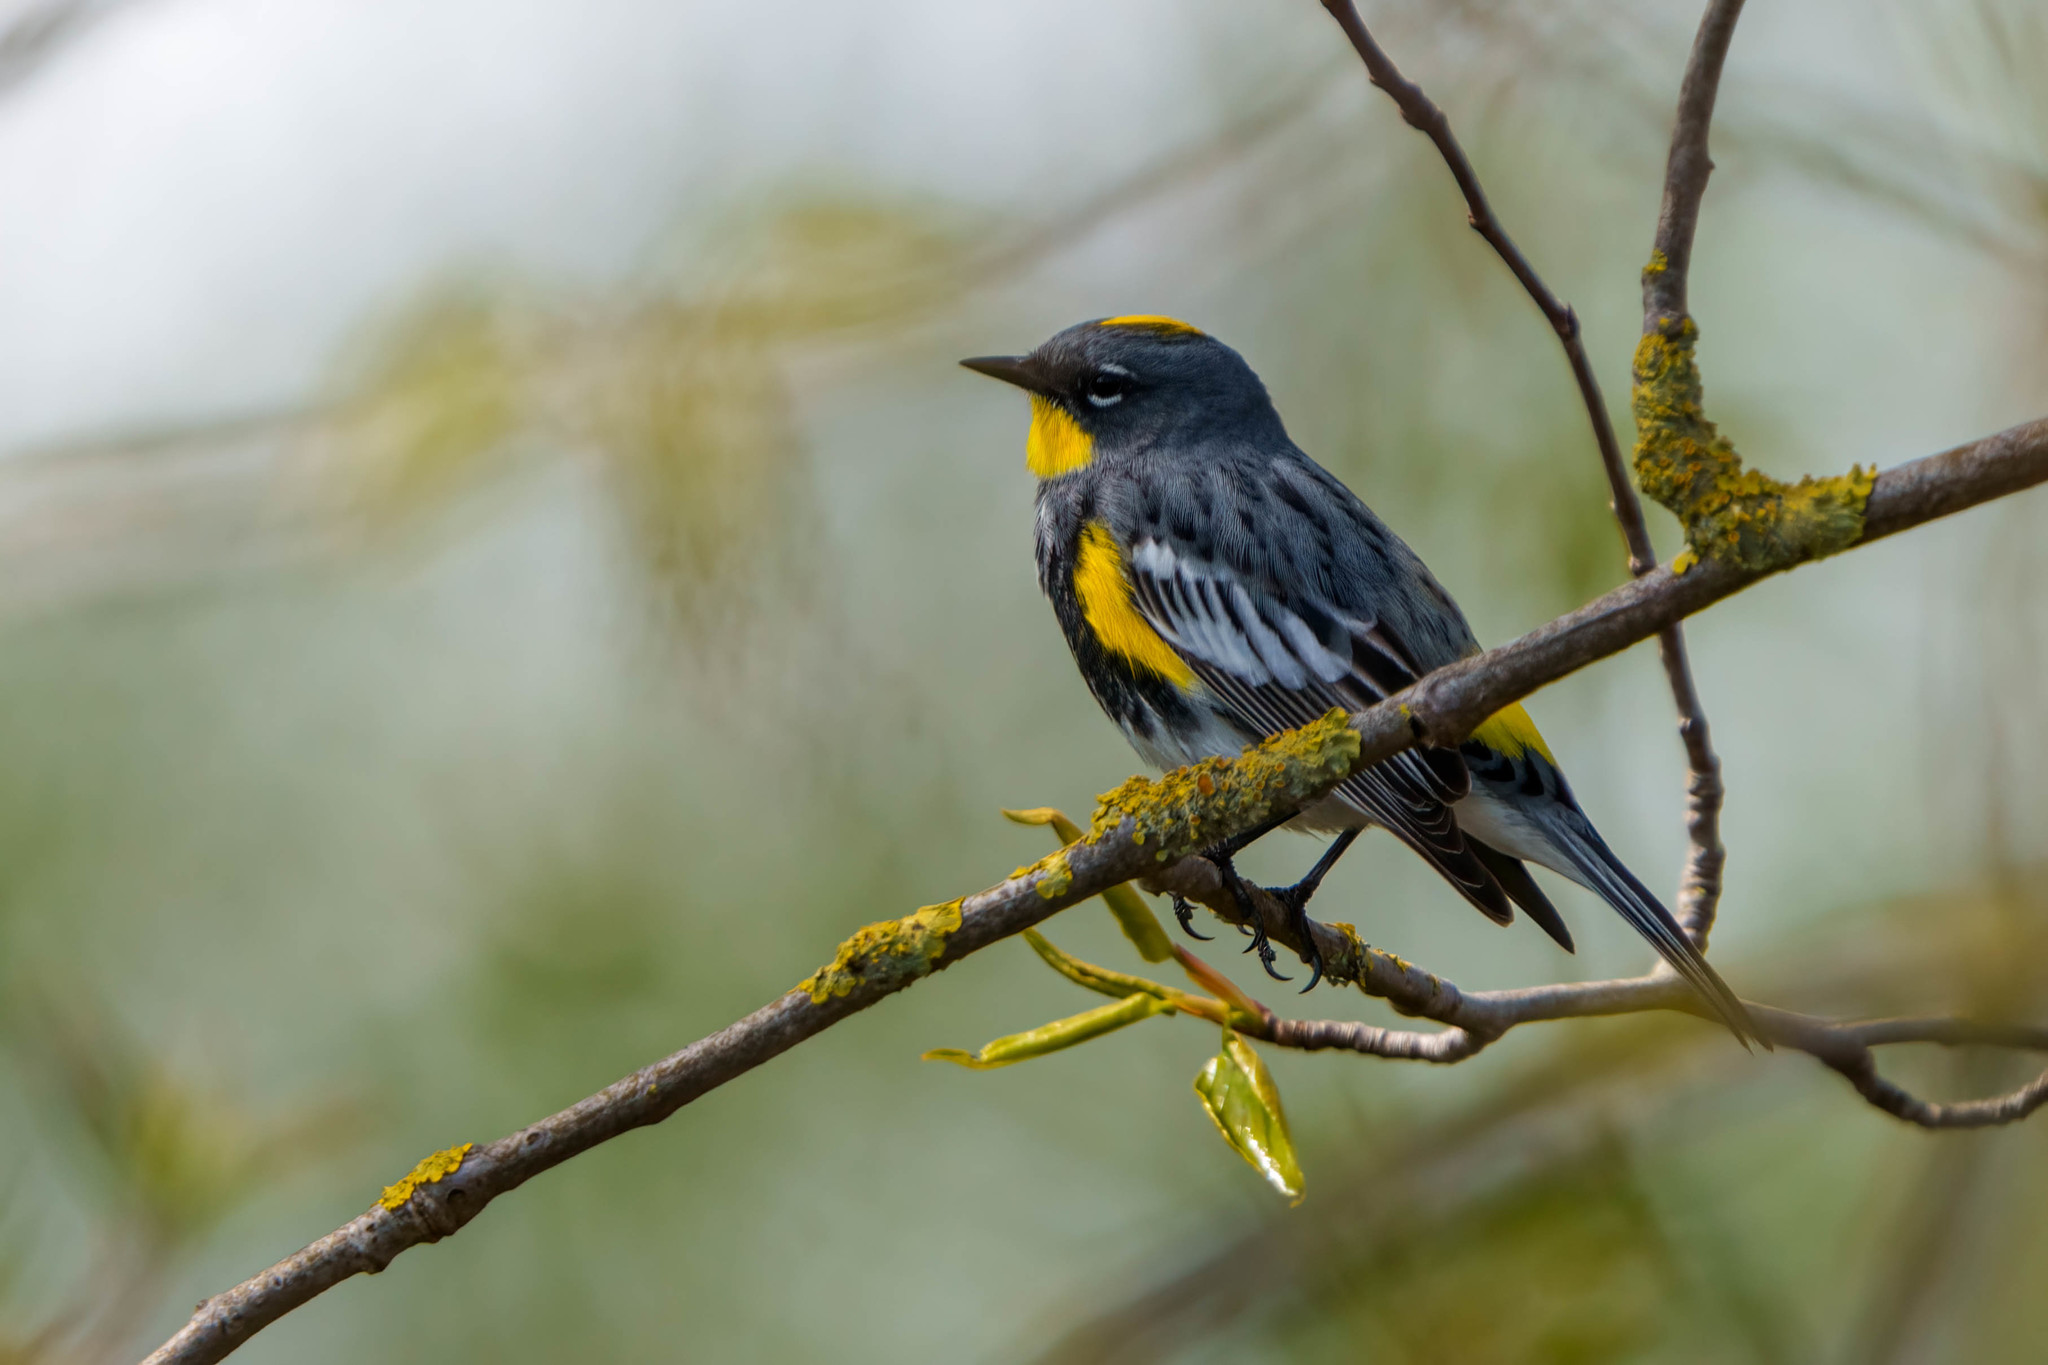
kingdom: Animalia
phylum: Chordata
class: Aves
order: Passeriformes
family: Parulidae
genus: Setophaga
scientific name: Setophaga auduboni
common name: Audubon's warbler
